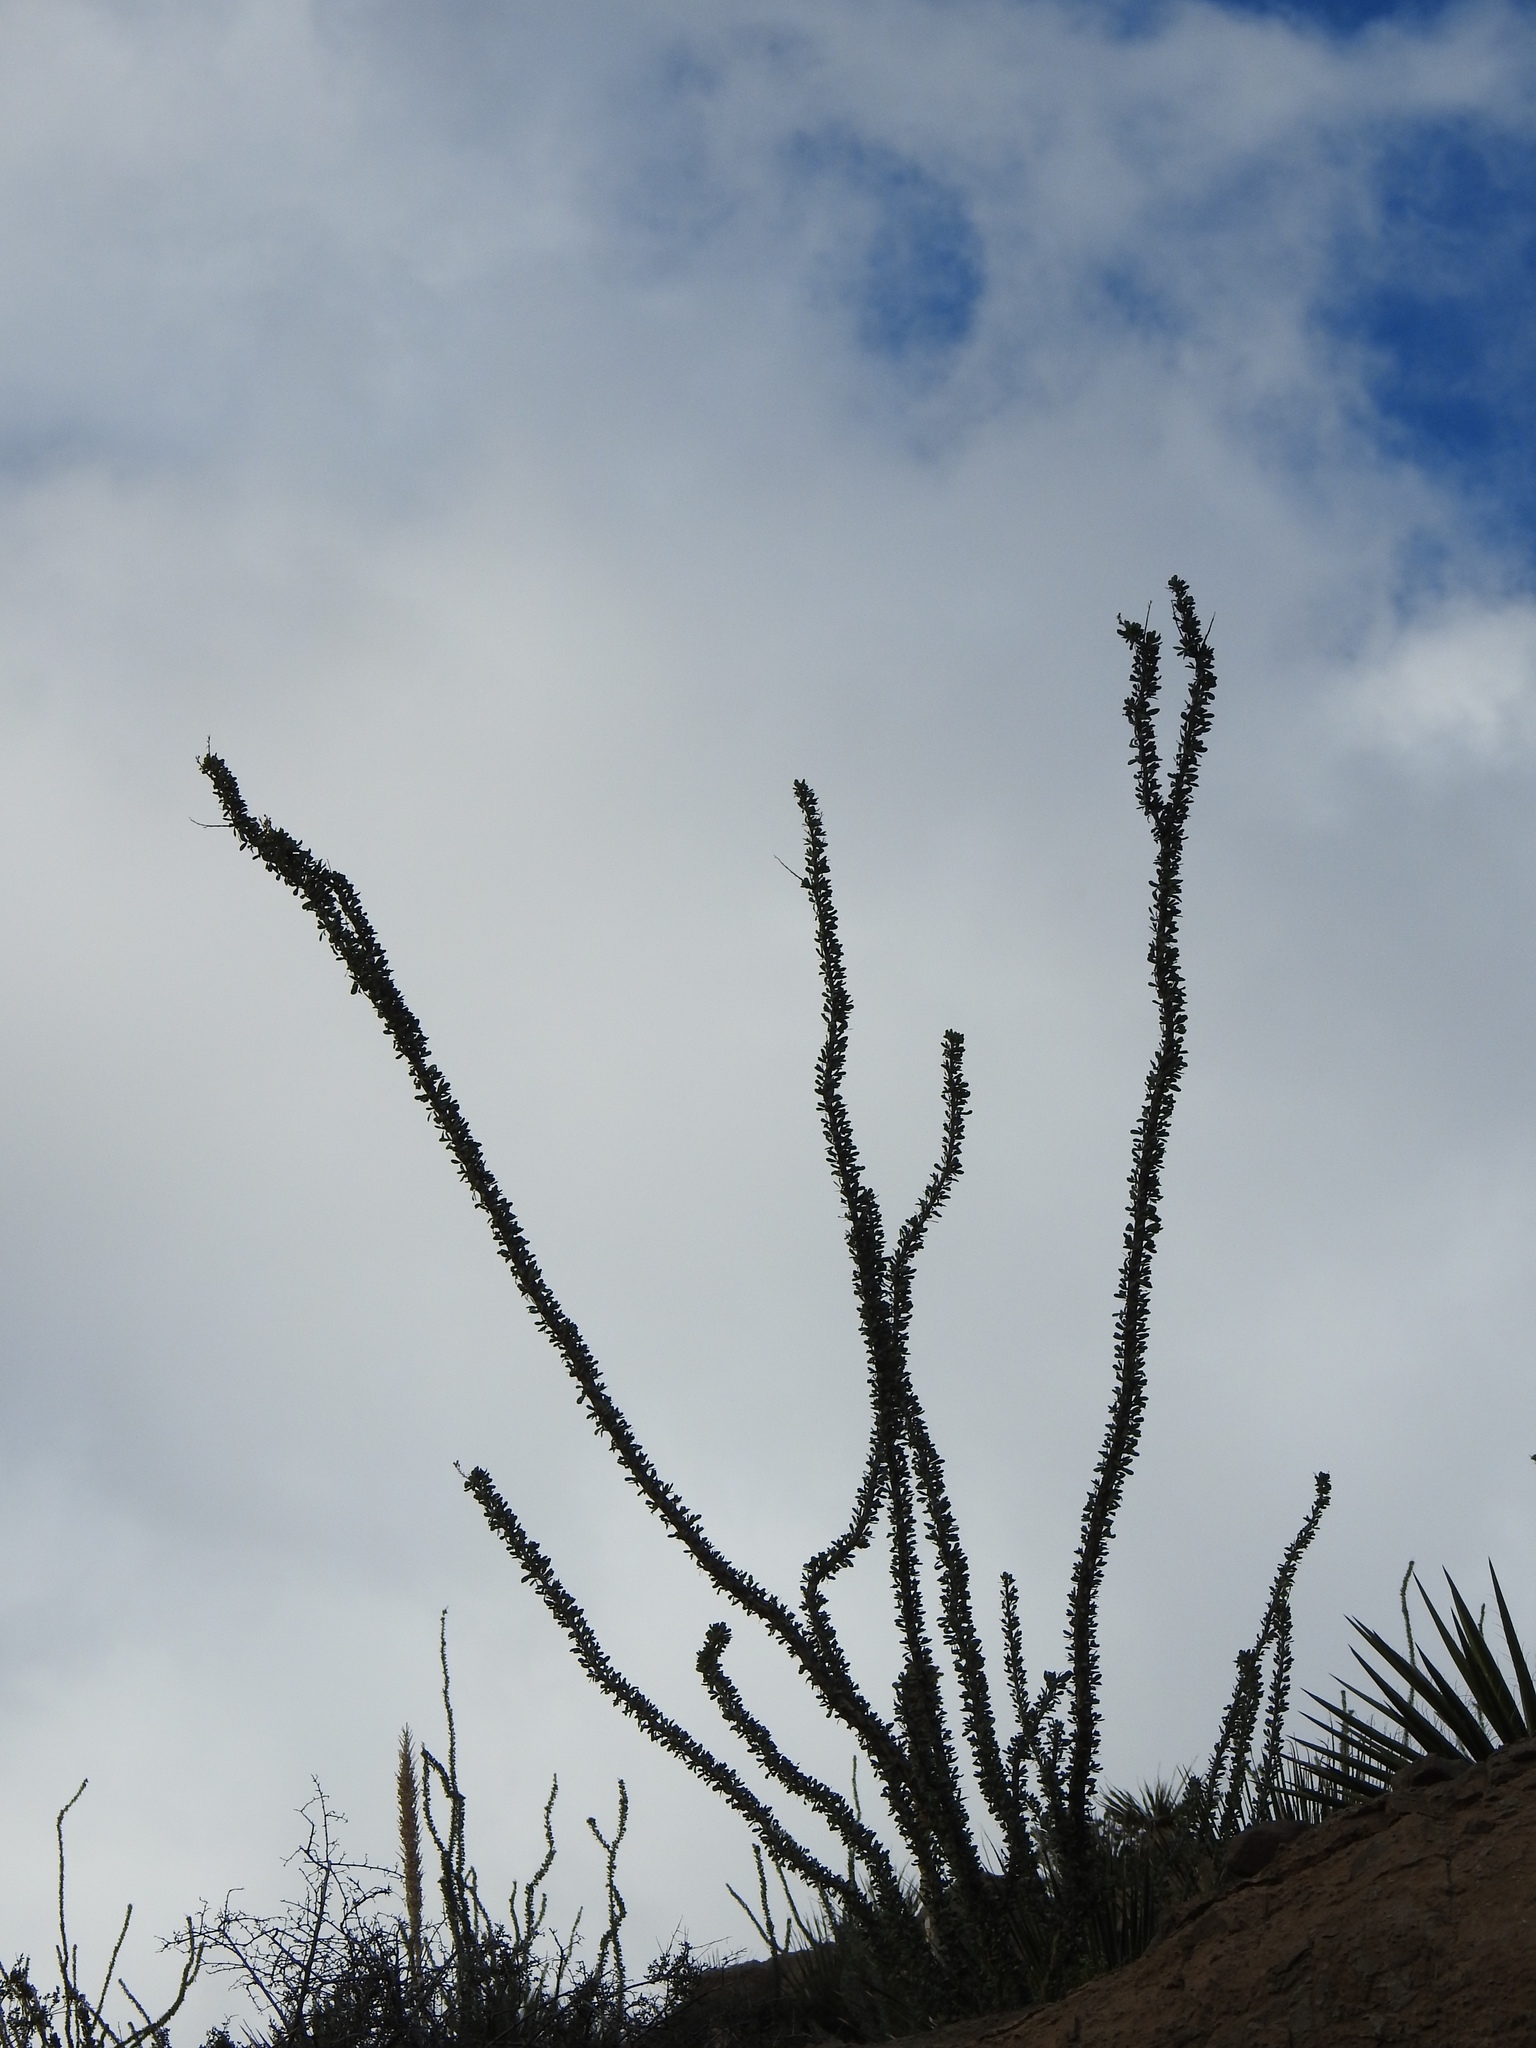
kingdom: Plantae
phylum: Tracheophyta
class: Magnoliopsida
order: Ericales
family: Fouquieriaceae
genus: Fouquieria
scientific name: Fouquieria splendens
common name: Vine-cactus
